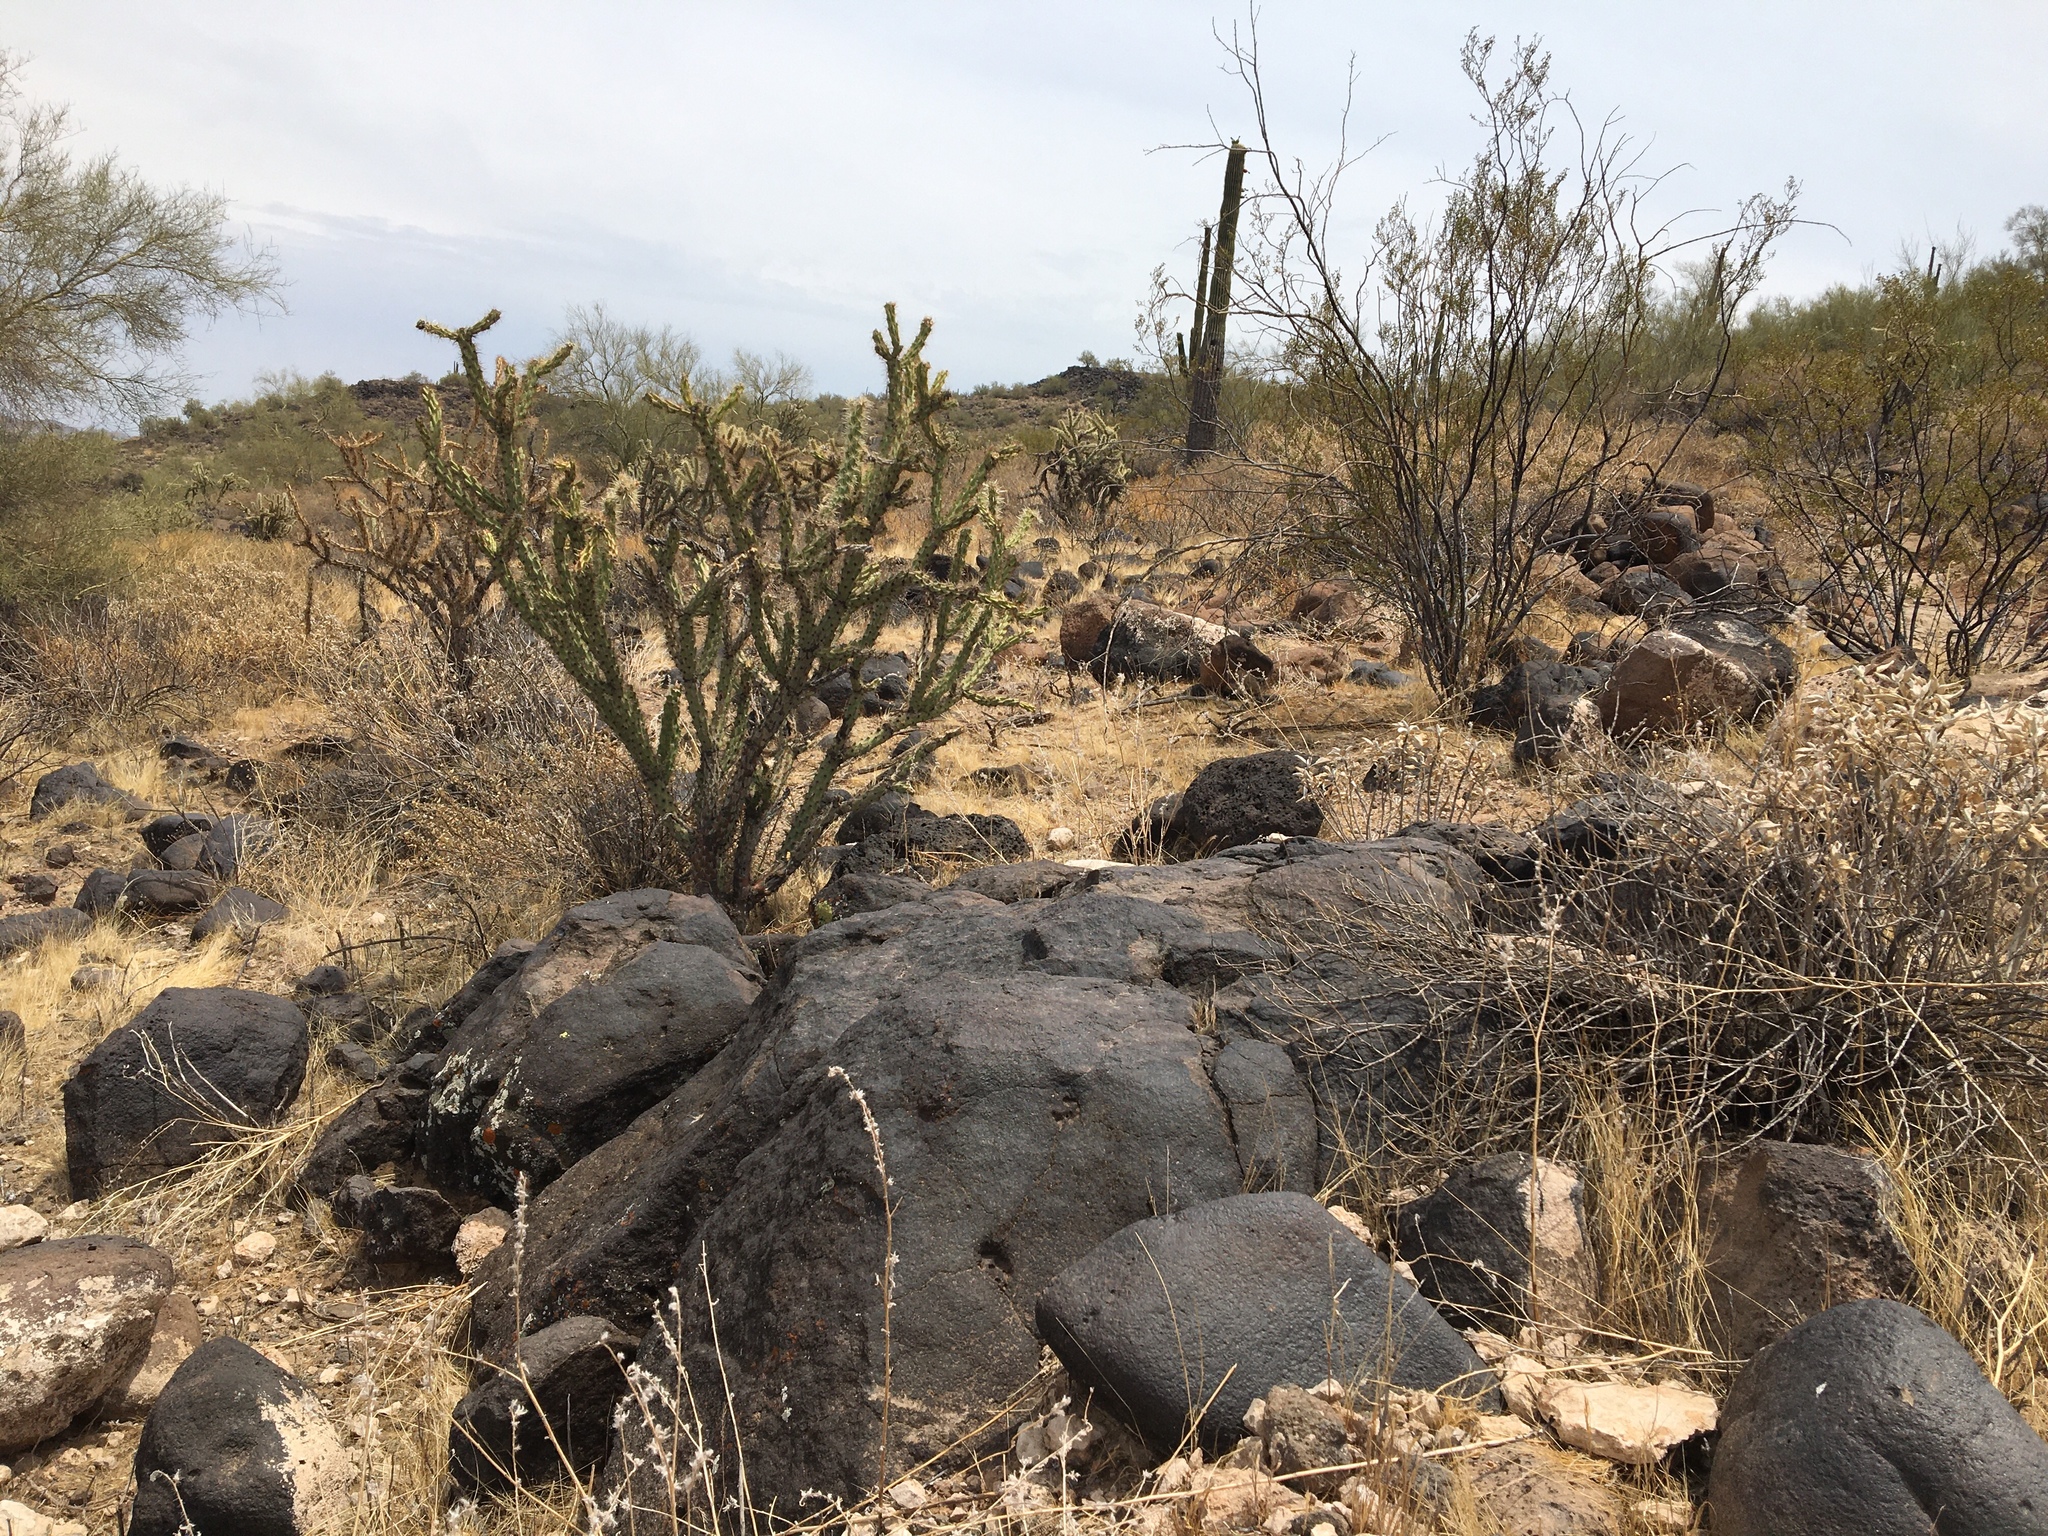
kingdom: Plantae
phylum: Tracheophyta
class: Magnoliopsida
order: Caryophyllales
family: Cactaceae
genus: Cylindropuntia
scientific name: Cylindropuntia acanthocarpa
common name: Buckhorn cholla
